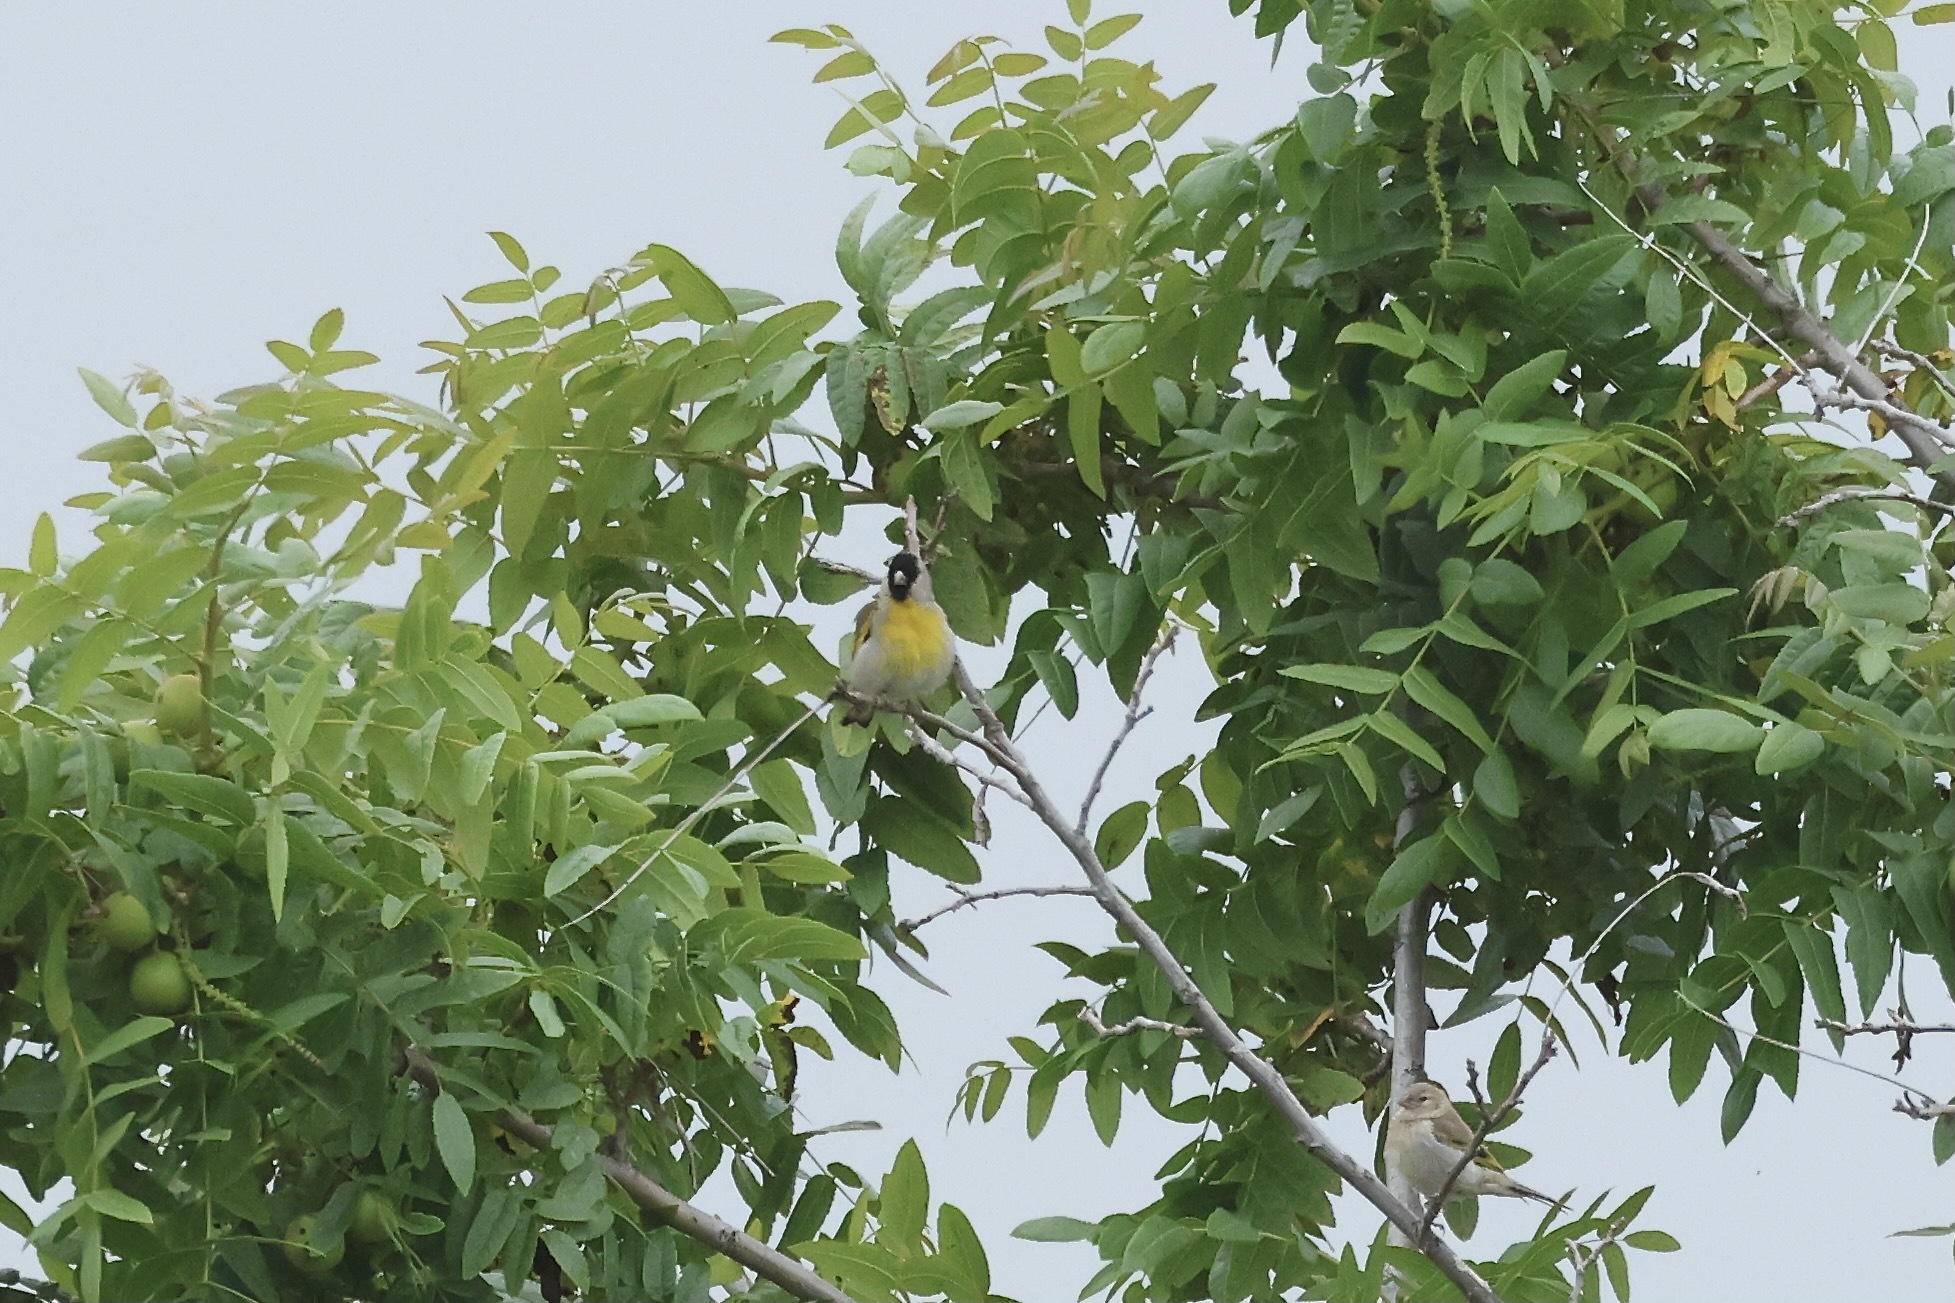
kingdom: Animalia
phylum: Chordata
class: Aves
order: Passeriformes
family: Fringillidae
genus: Spinus
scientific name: Spinus lawrencei
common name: Lawrence's goldfinch
